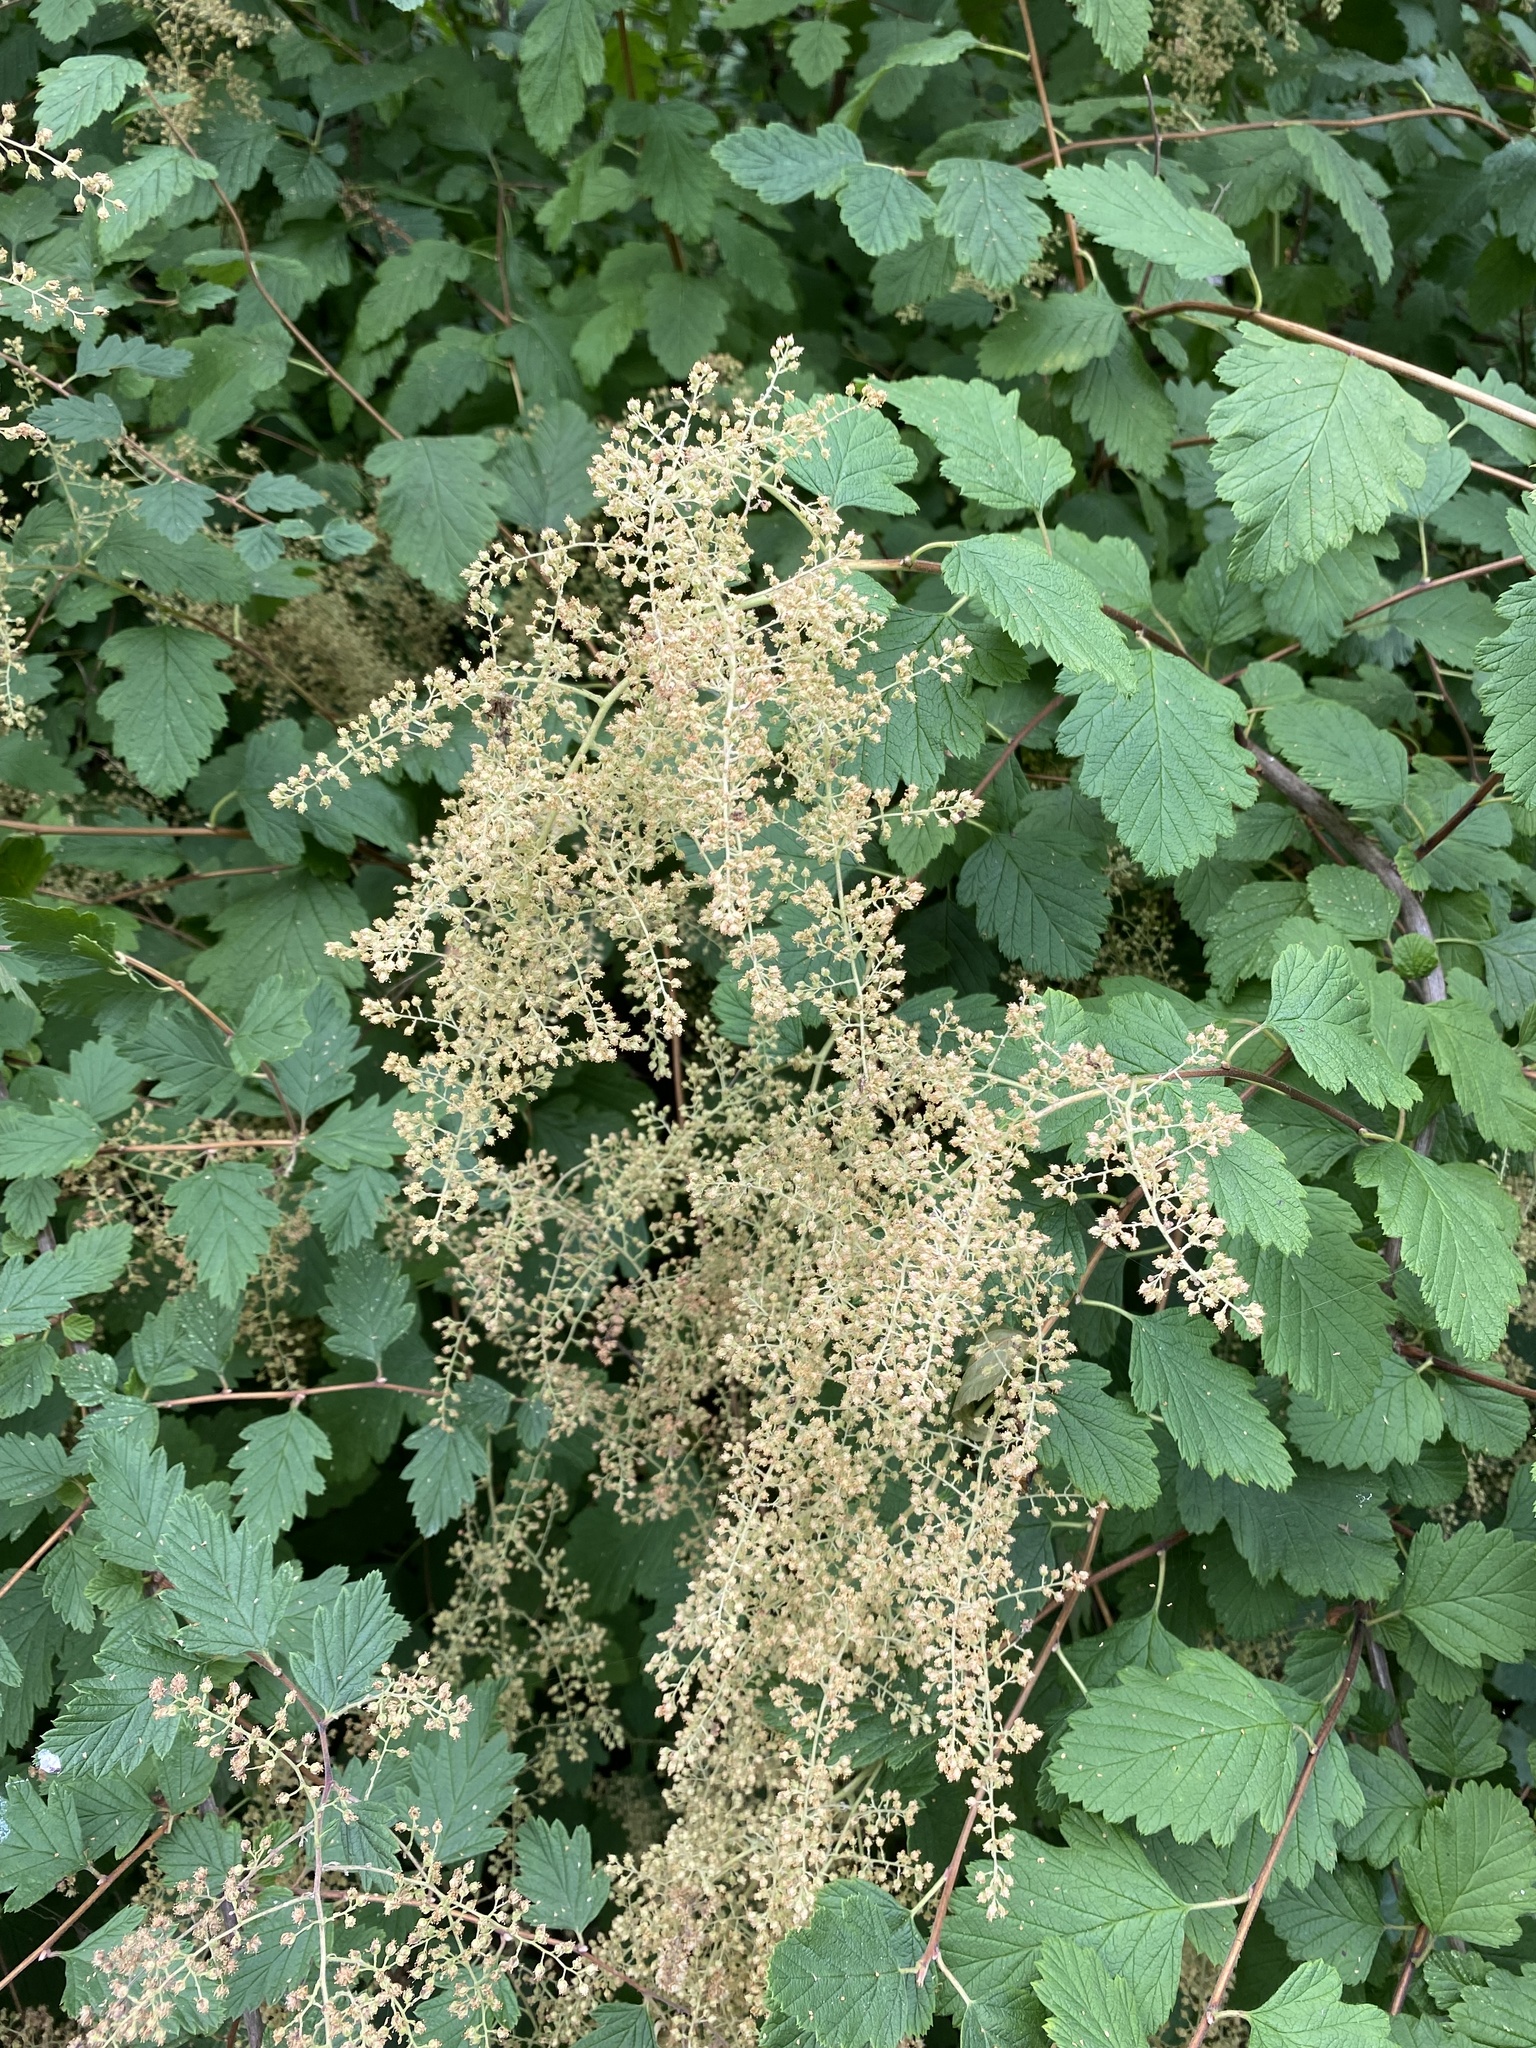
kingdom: Plantae
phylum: Tracheophyta
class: Magnoliopsida
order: Rosales
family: Rosaceae
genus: Holodiscus
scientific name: Holodiscus discolor
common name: Oceanspray
